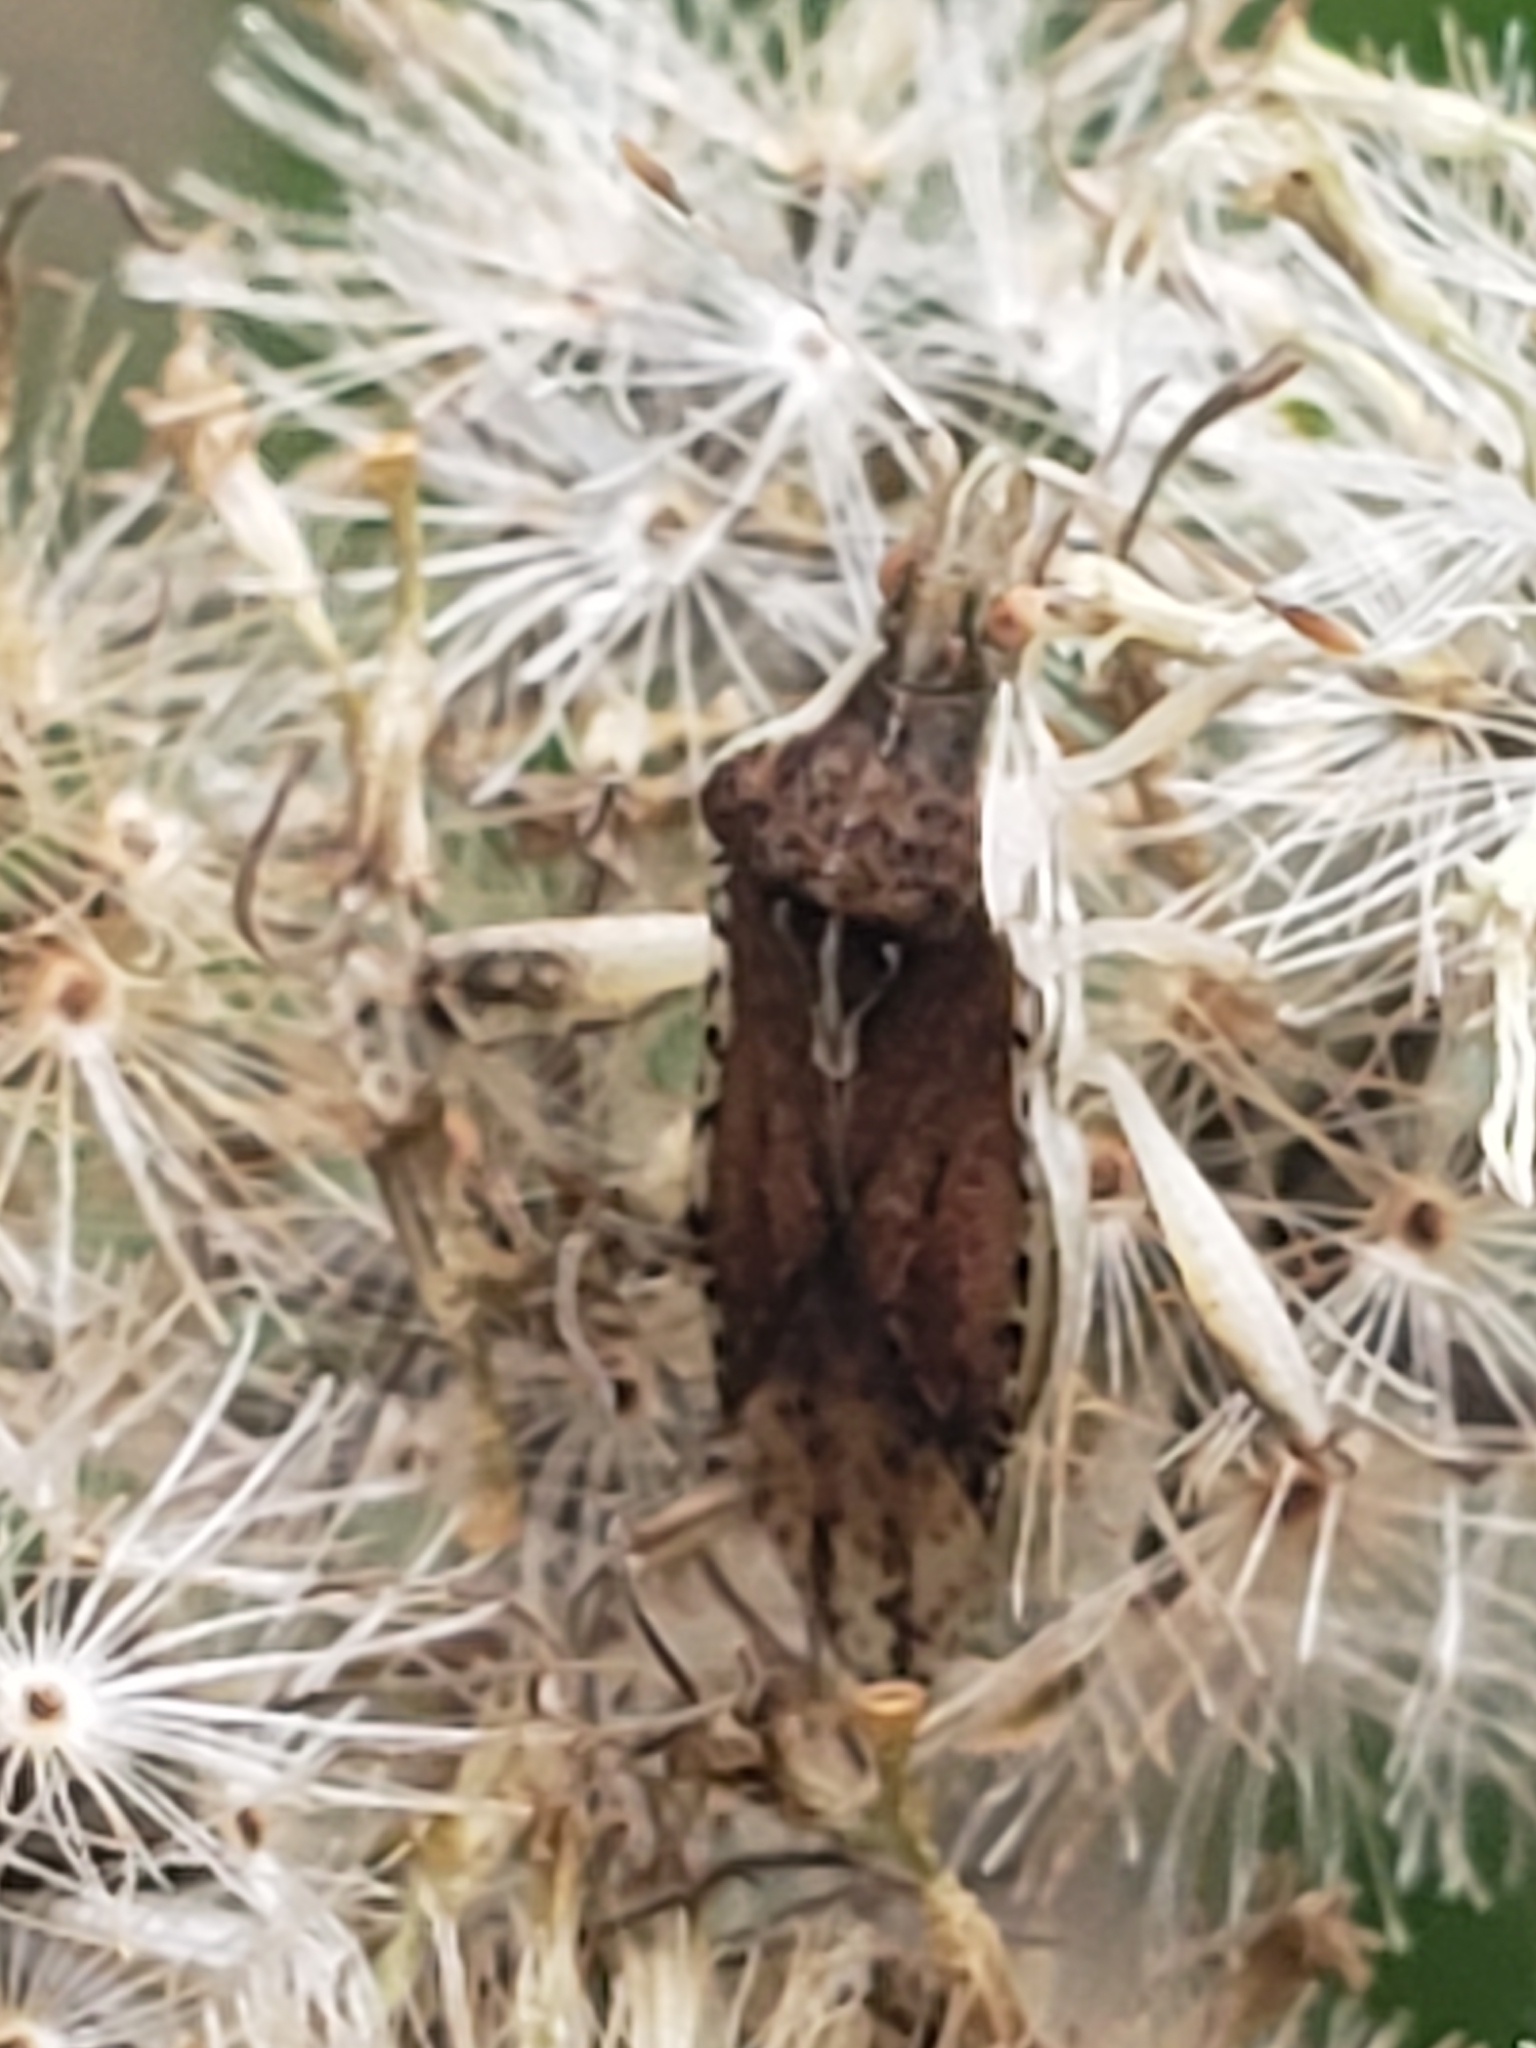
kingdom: Animalia
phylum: Arthropoda
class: Insecta
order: Hemiptera
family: Rhopalidae
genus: Harmostes
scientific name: Harmostes fraterculus
